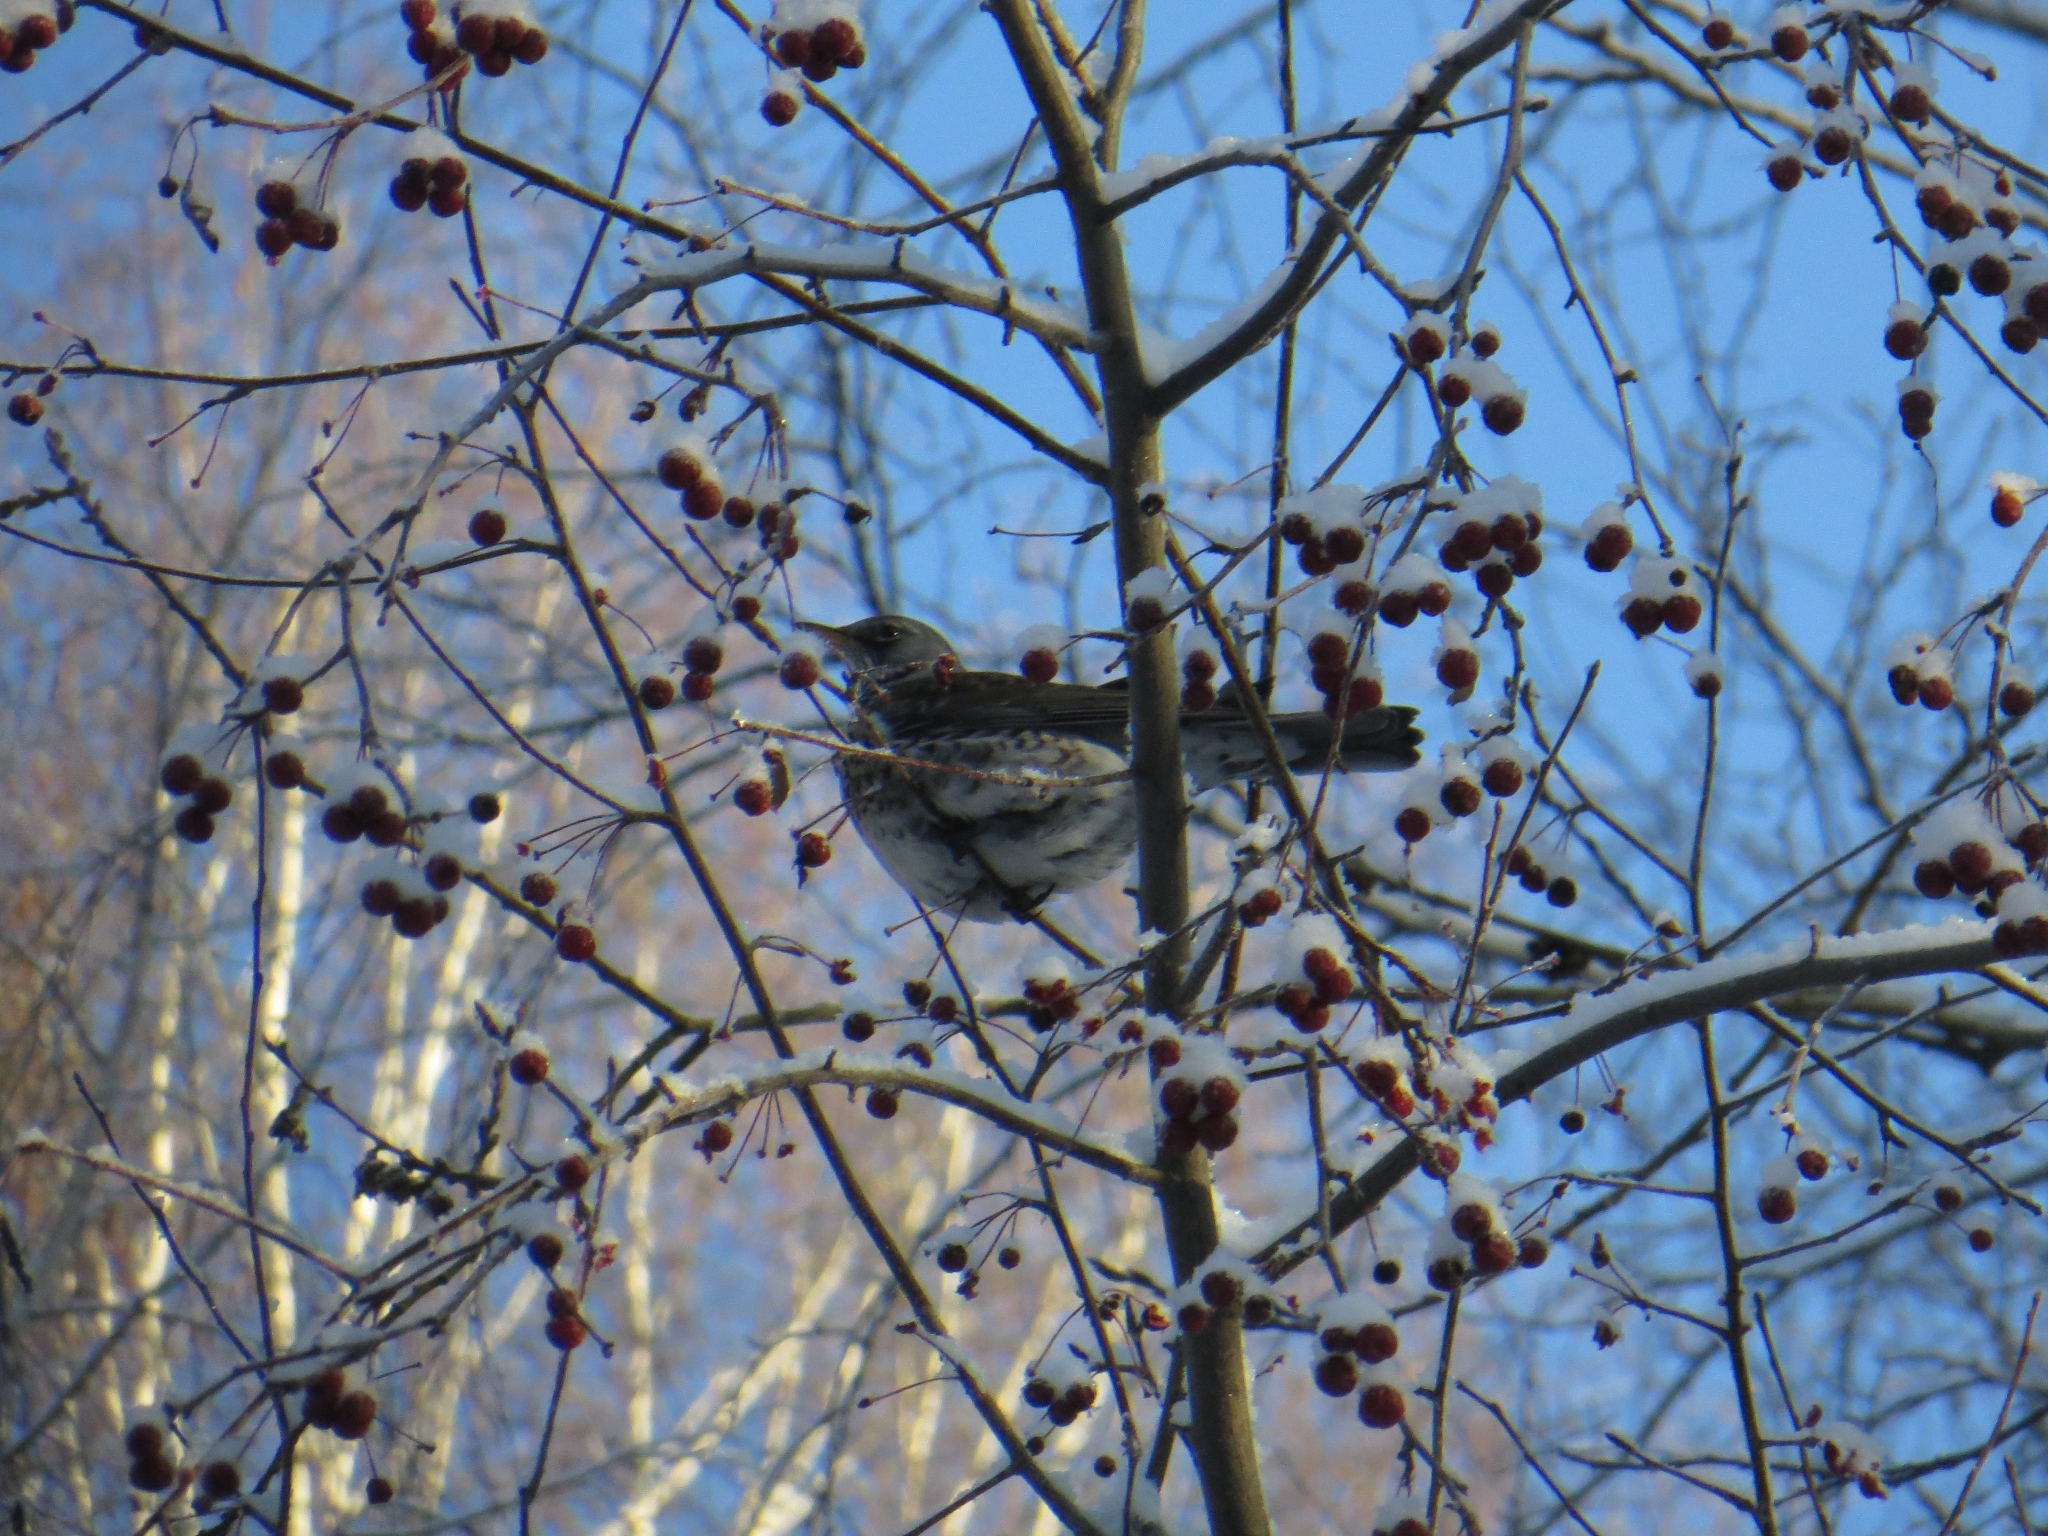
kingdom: Animalia
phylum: Chordata
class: Aves
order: Passeriformes
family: Turdidae
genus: Turdus
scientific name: Turdus pilaris
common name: Fieldfare
